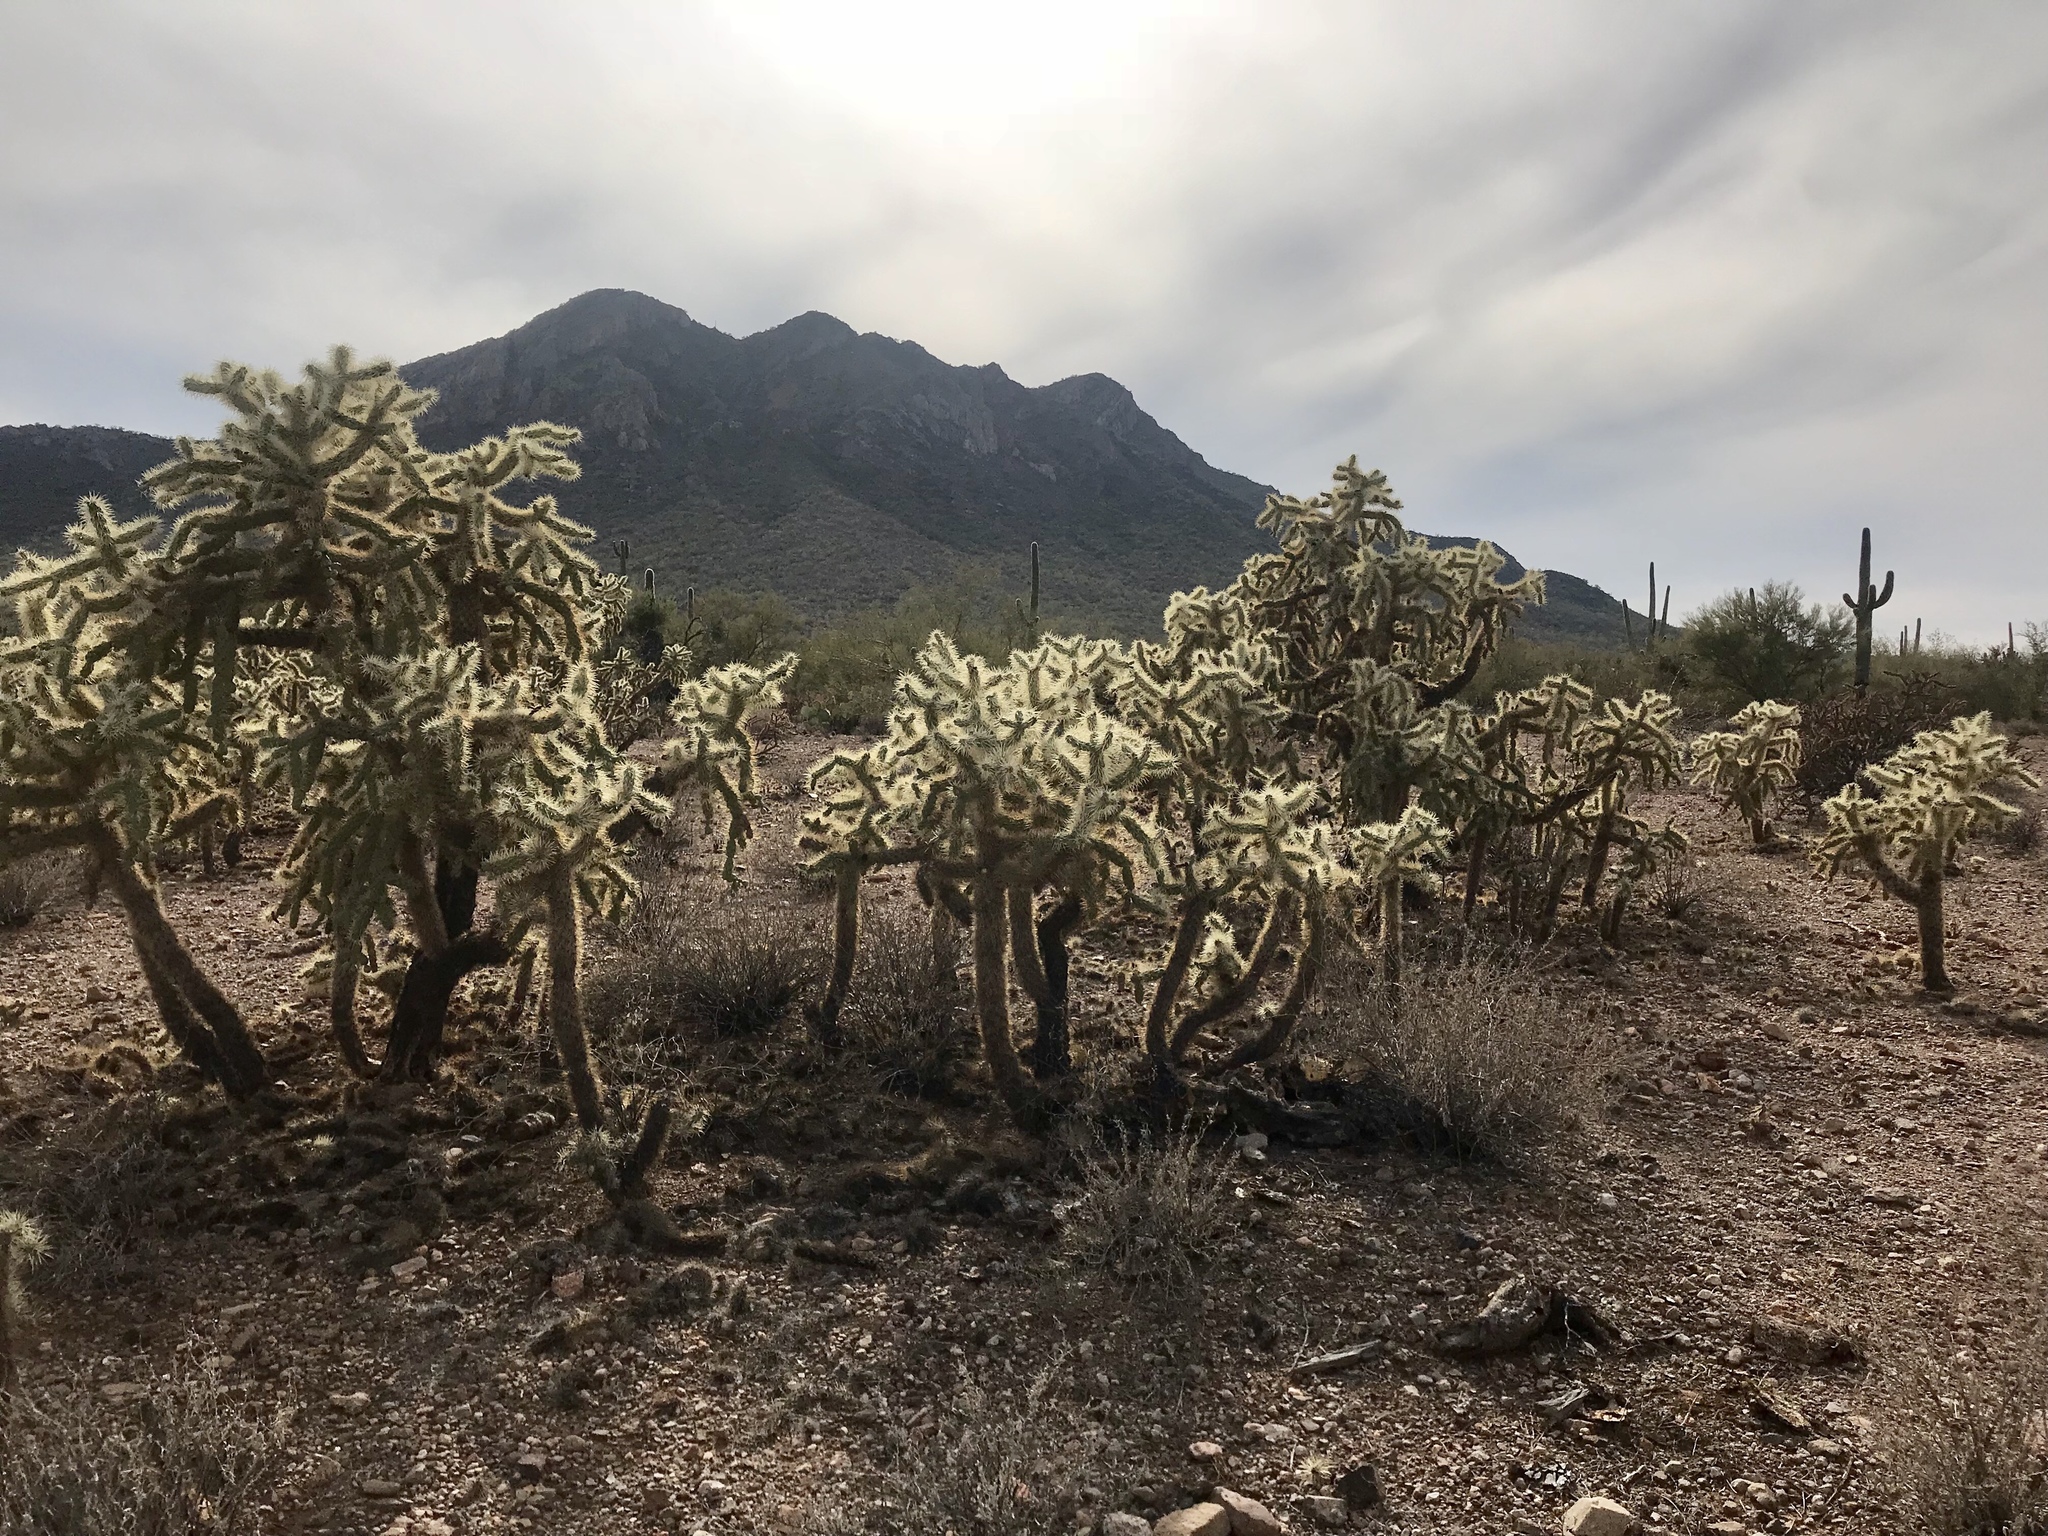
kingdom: Plantae
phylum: Tracheophyta
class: Magnoliopsida
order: Caryophyllales
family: Cactaceae
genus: Cylindropuntia
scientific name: Cylindropuntia fulgida
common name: Jumping cholla
